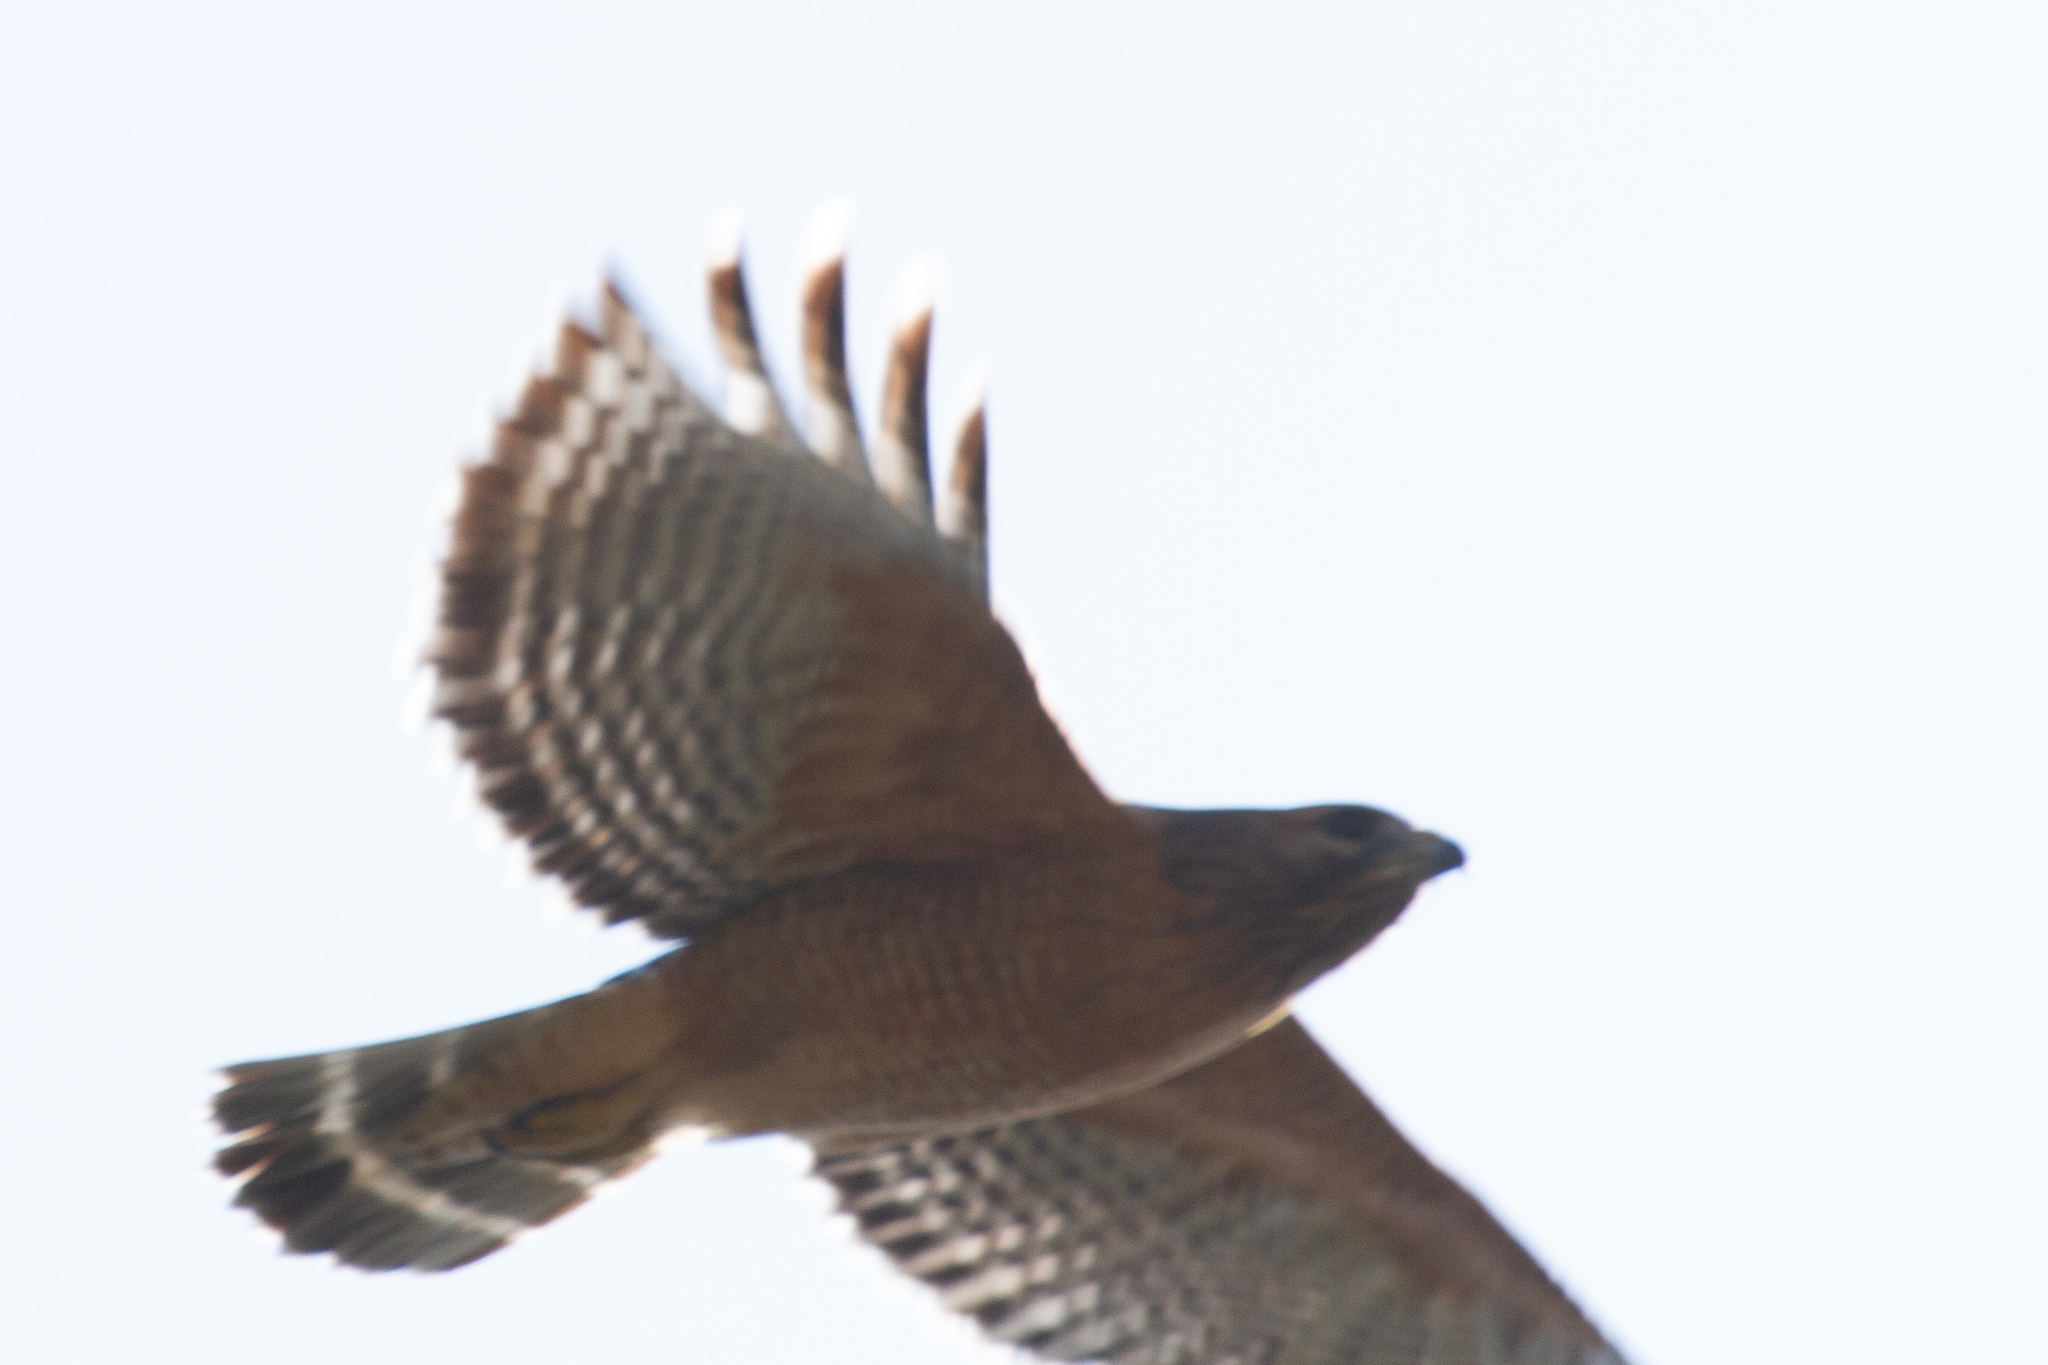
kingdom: Animalia
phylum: Chordata
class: Aves
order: Accipitriformes
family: Accipitridae
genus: Buteo
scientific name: Buteo lineatus
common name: Red-shouldered hawk
